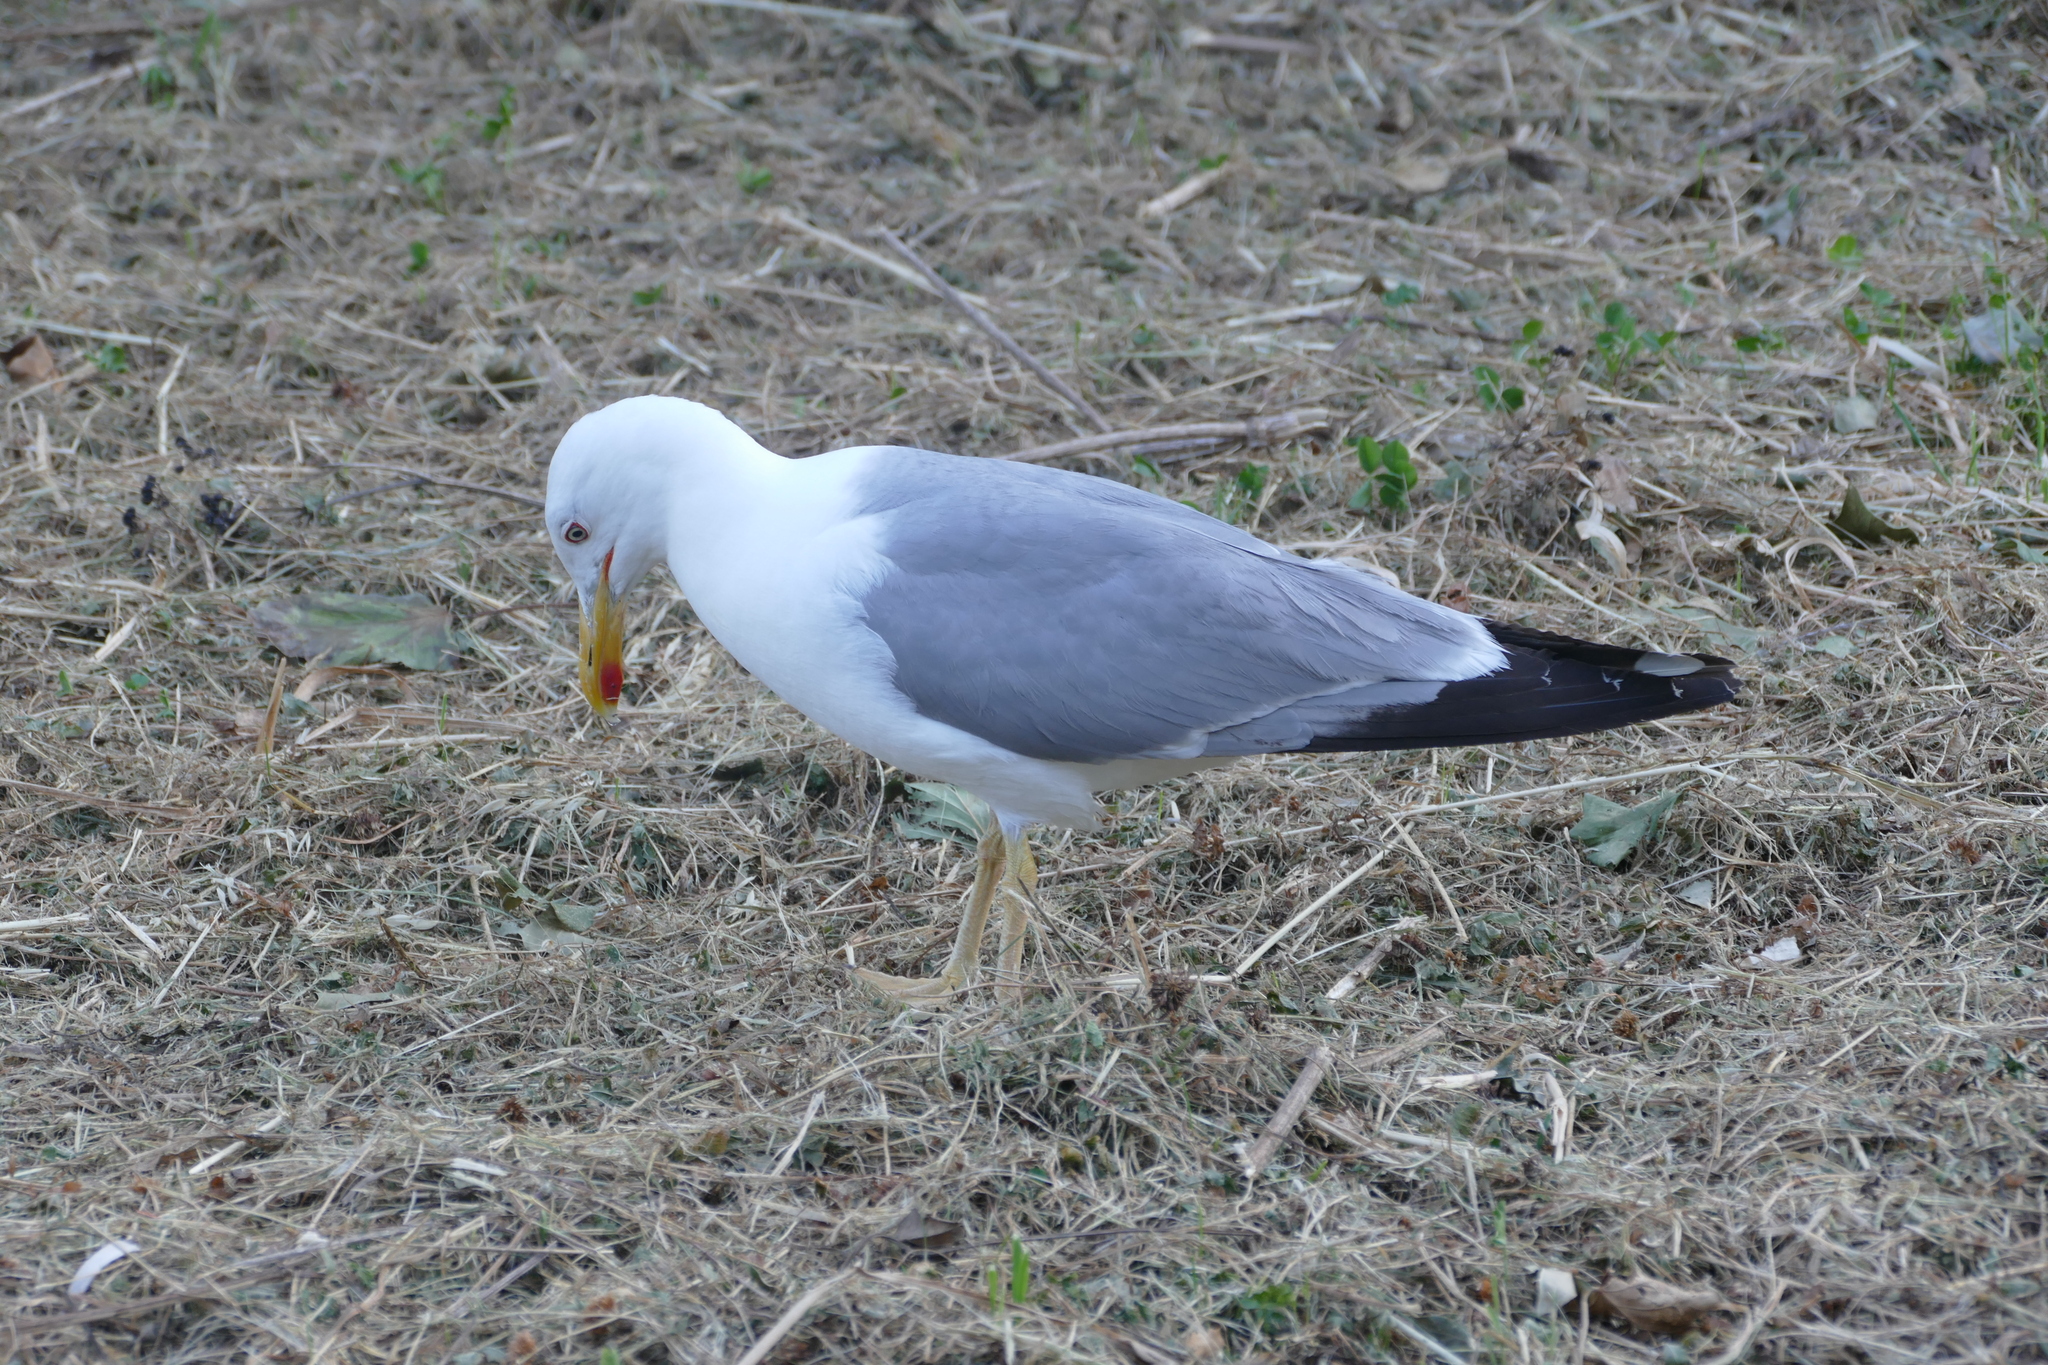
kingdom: Animalia
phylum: Chordata
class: Aves
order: Charadriiformes
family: Laridae
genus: Larus
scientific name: Larus michahellis
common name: Yellow-legged gull
